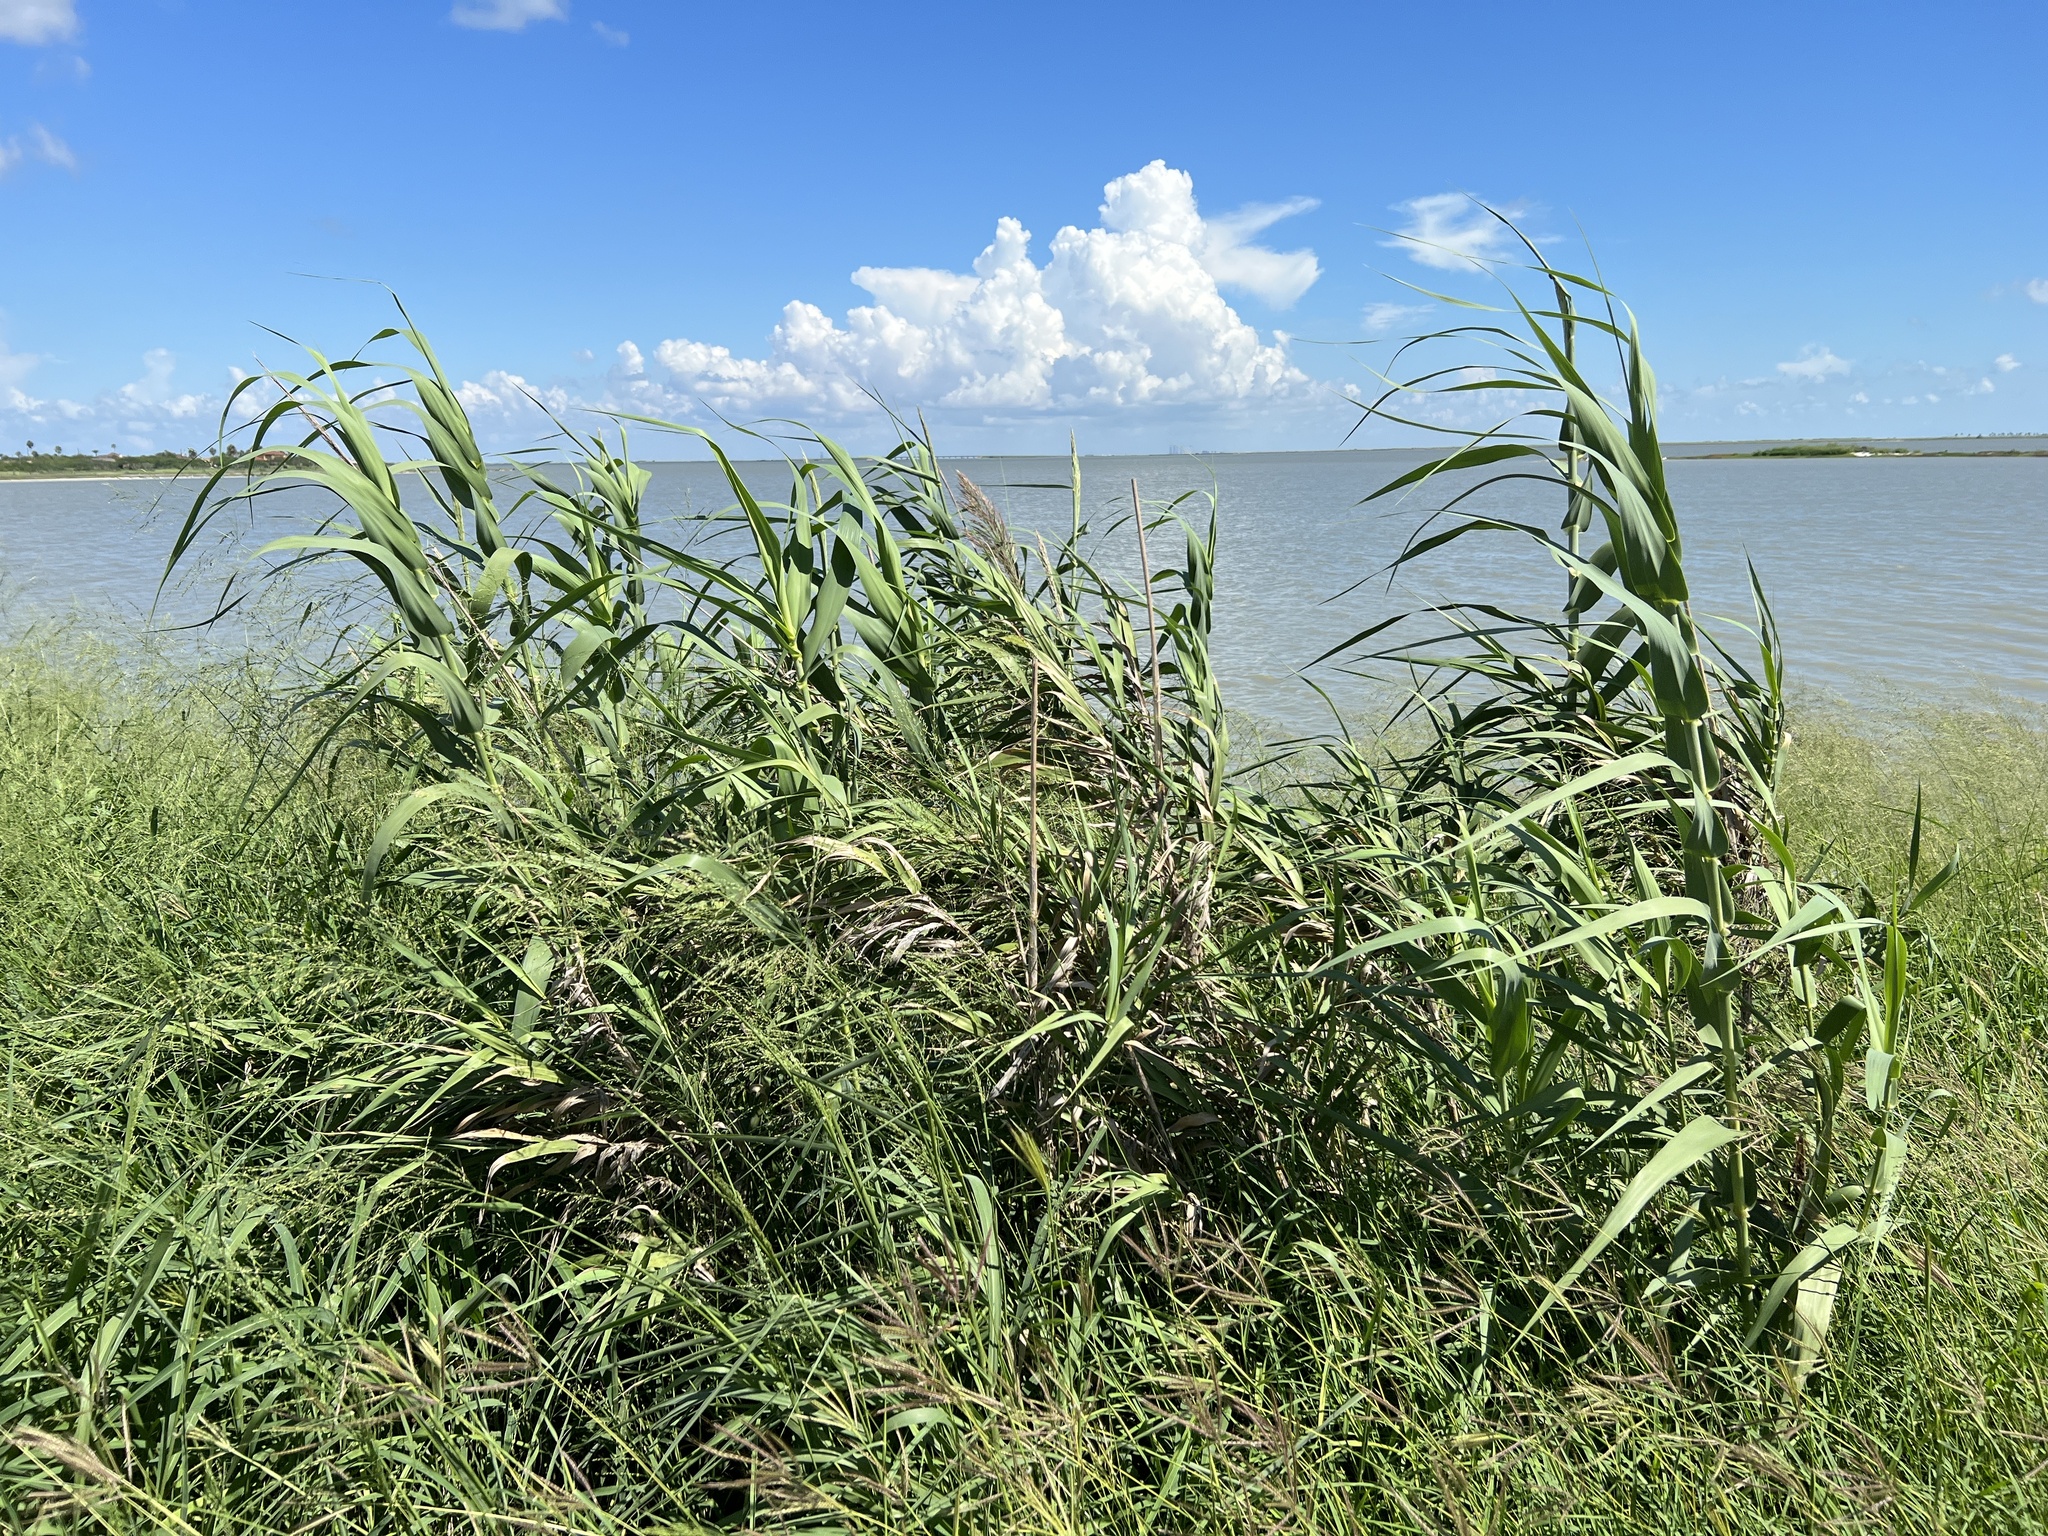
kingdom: Plantae
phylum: Tracheophyta
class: Liliopsida
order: Poales
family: Poaceae
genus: Arundo
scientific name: Arundo donax
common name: Giant reed
